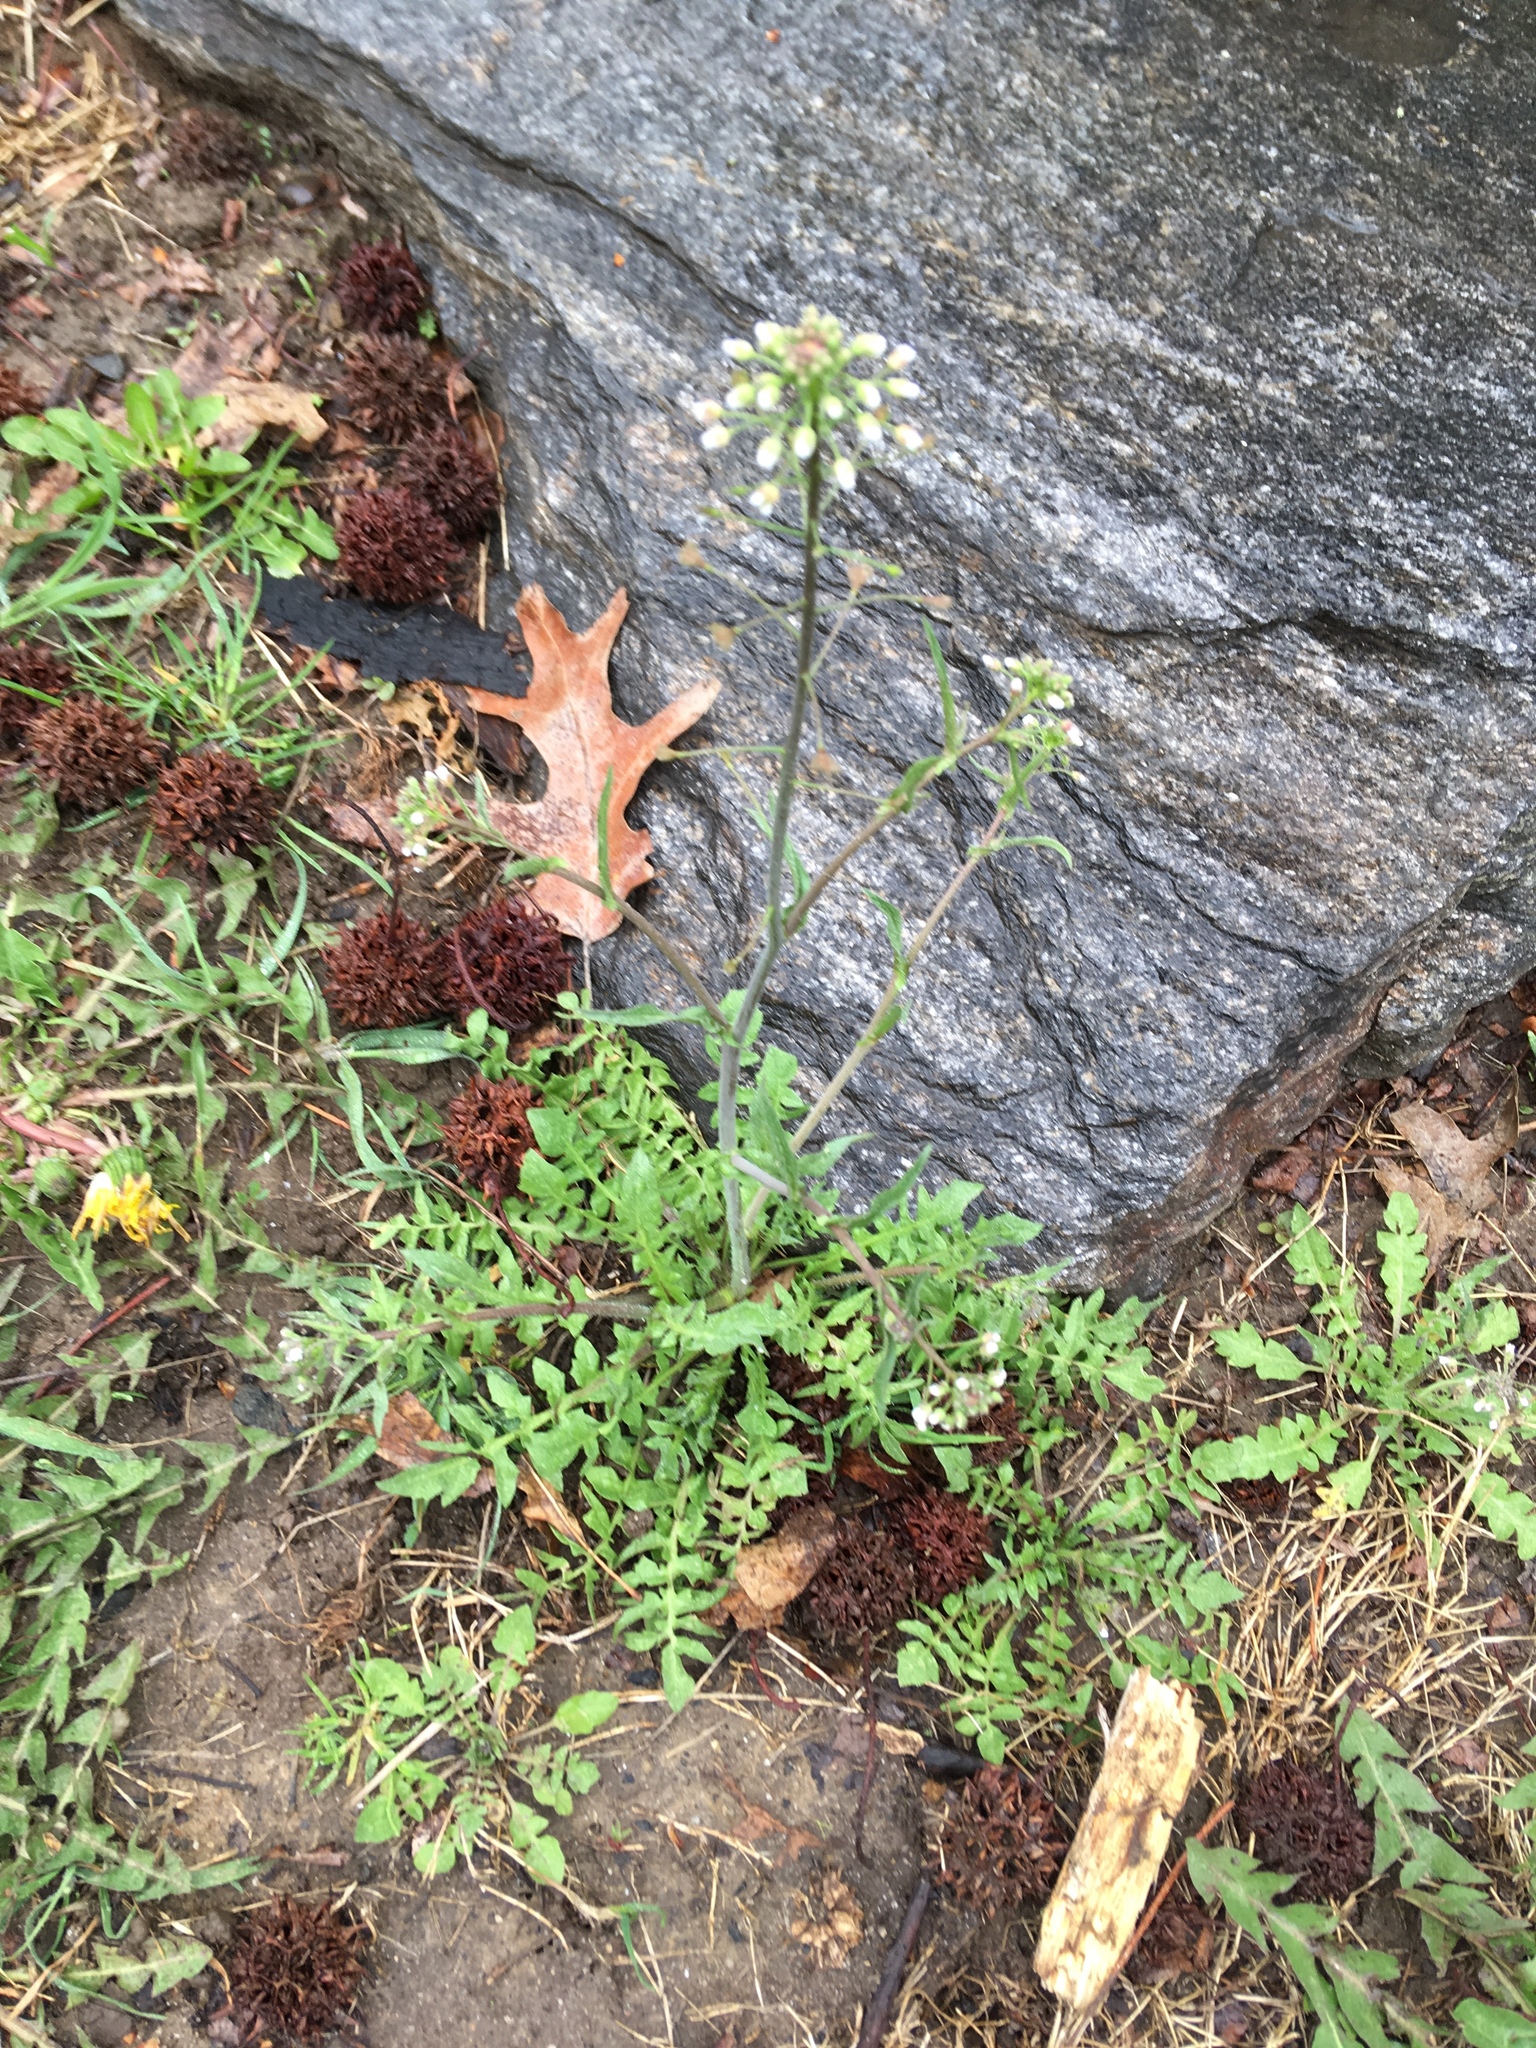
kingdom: Plantae
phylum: Tracheophyta
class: Magnoliopsida
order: Brassicales
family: Brassicaceae
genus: Capsella
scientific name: Capsella bursa-pastoris
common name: Shepherd's purse
